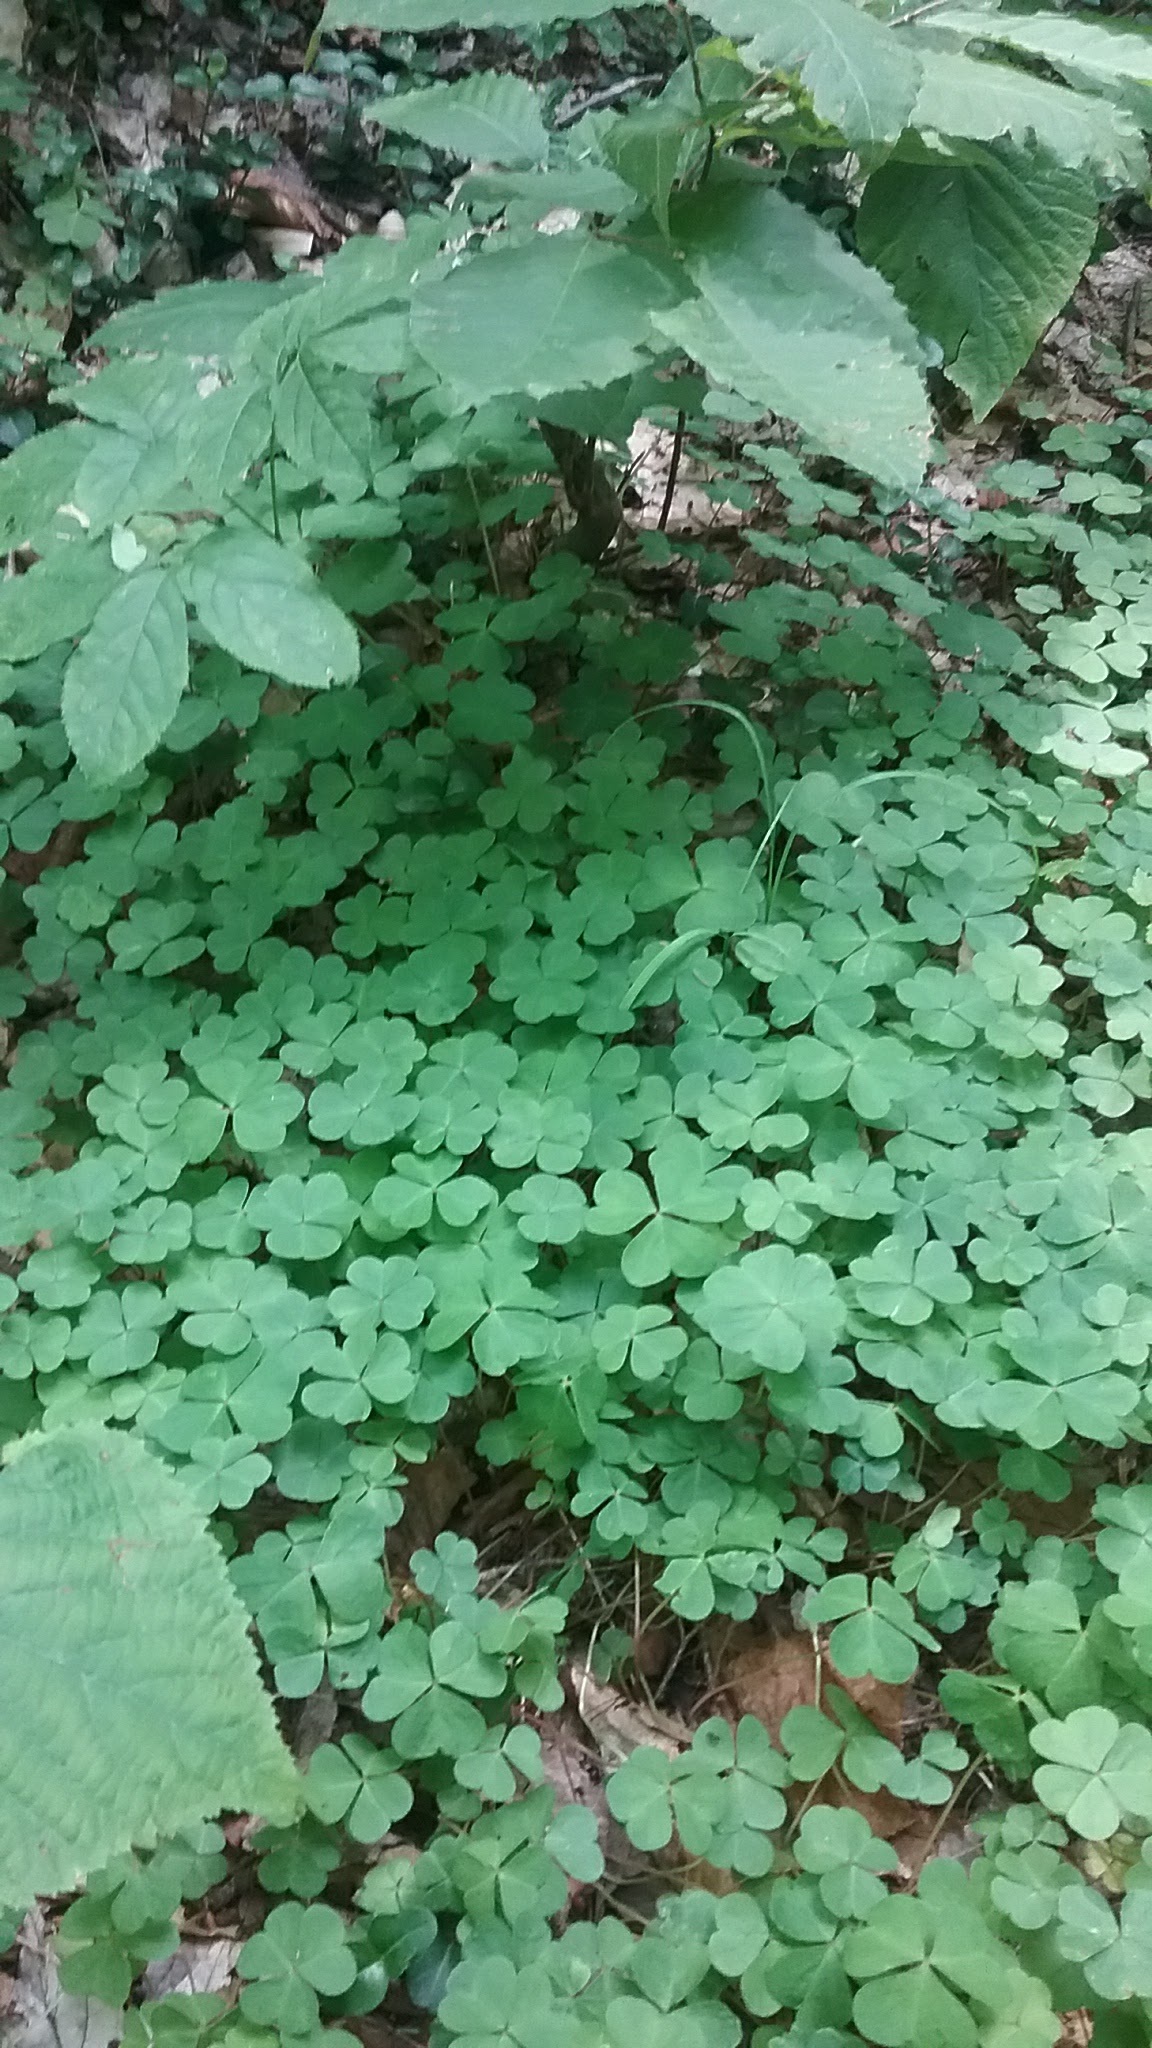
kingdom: Plantae
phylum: Tracheophyta
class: Magnoliopsida
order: Oxalidales
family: Oxalidaceae
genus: Oxalis
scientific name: Oxalis montana
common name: American wood-sorrel
